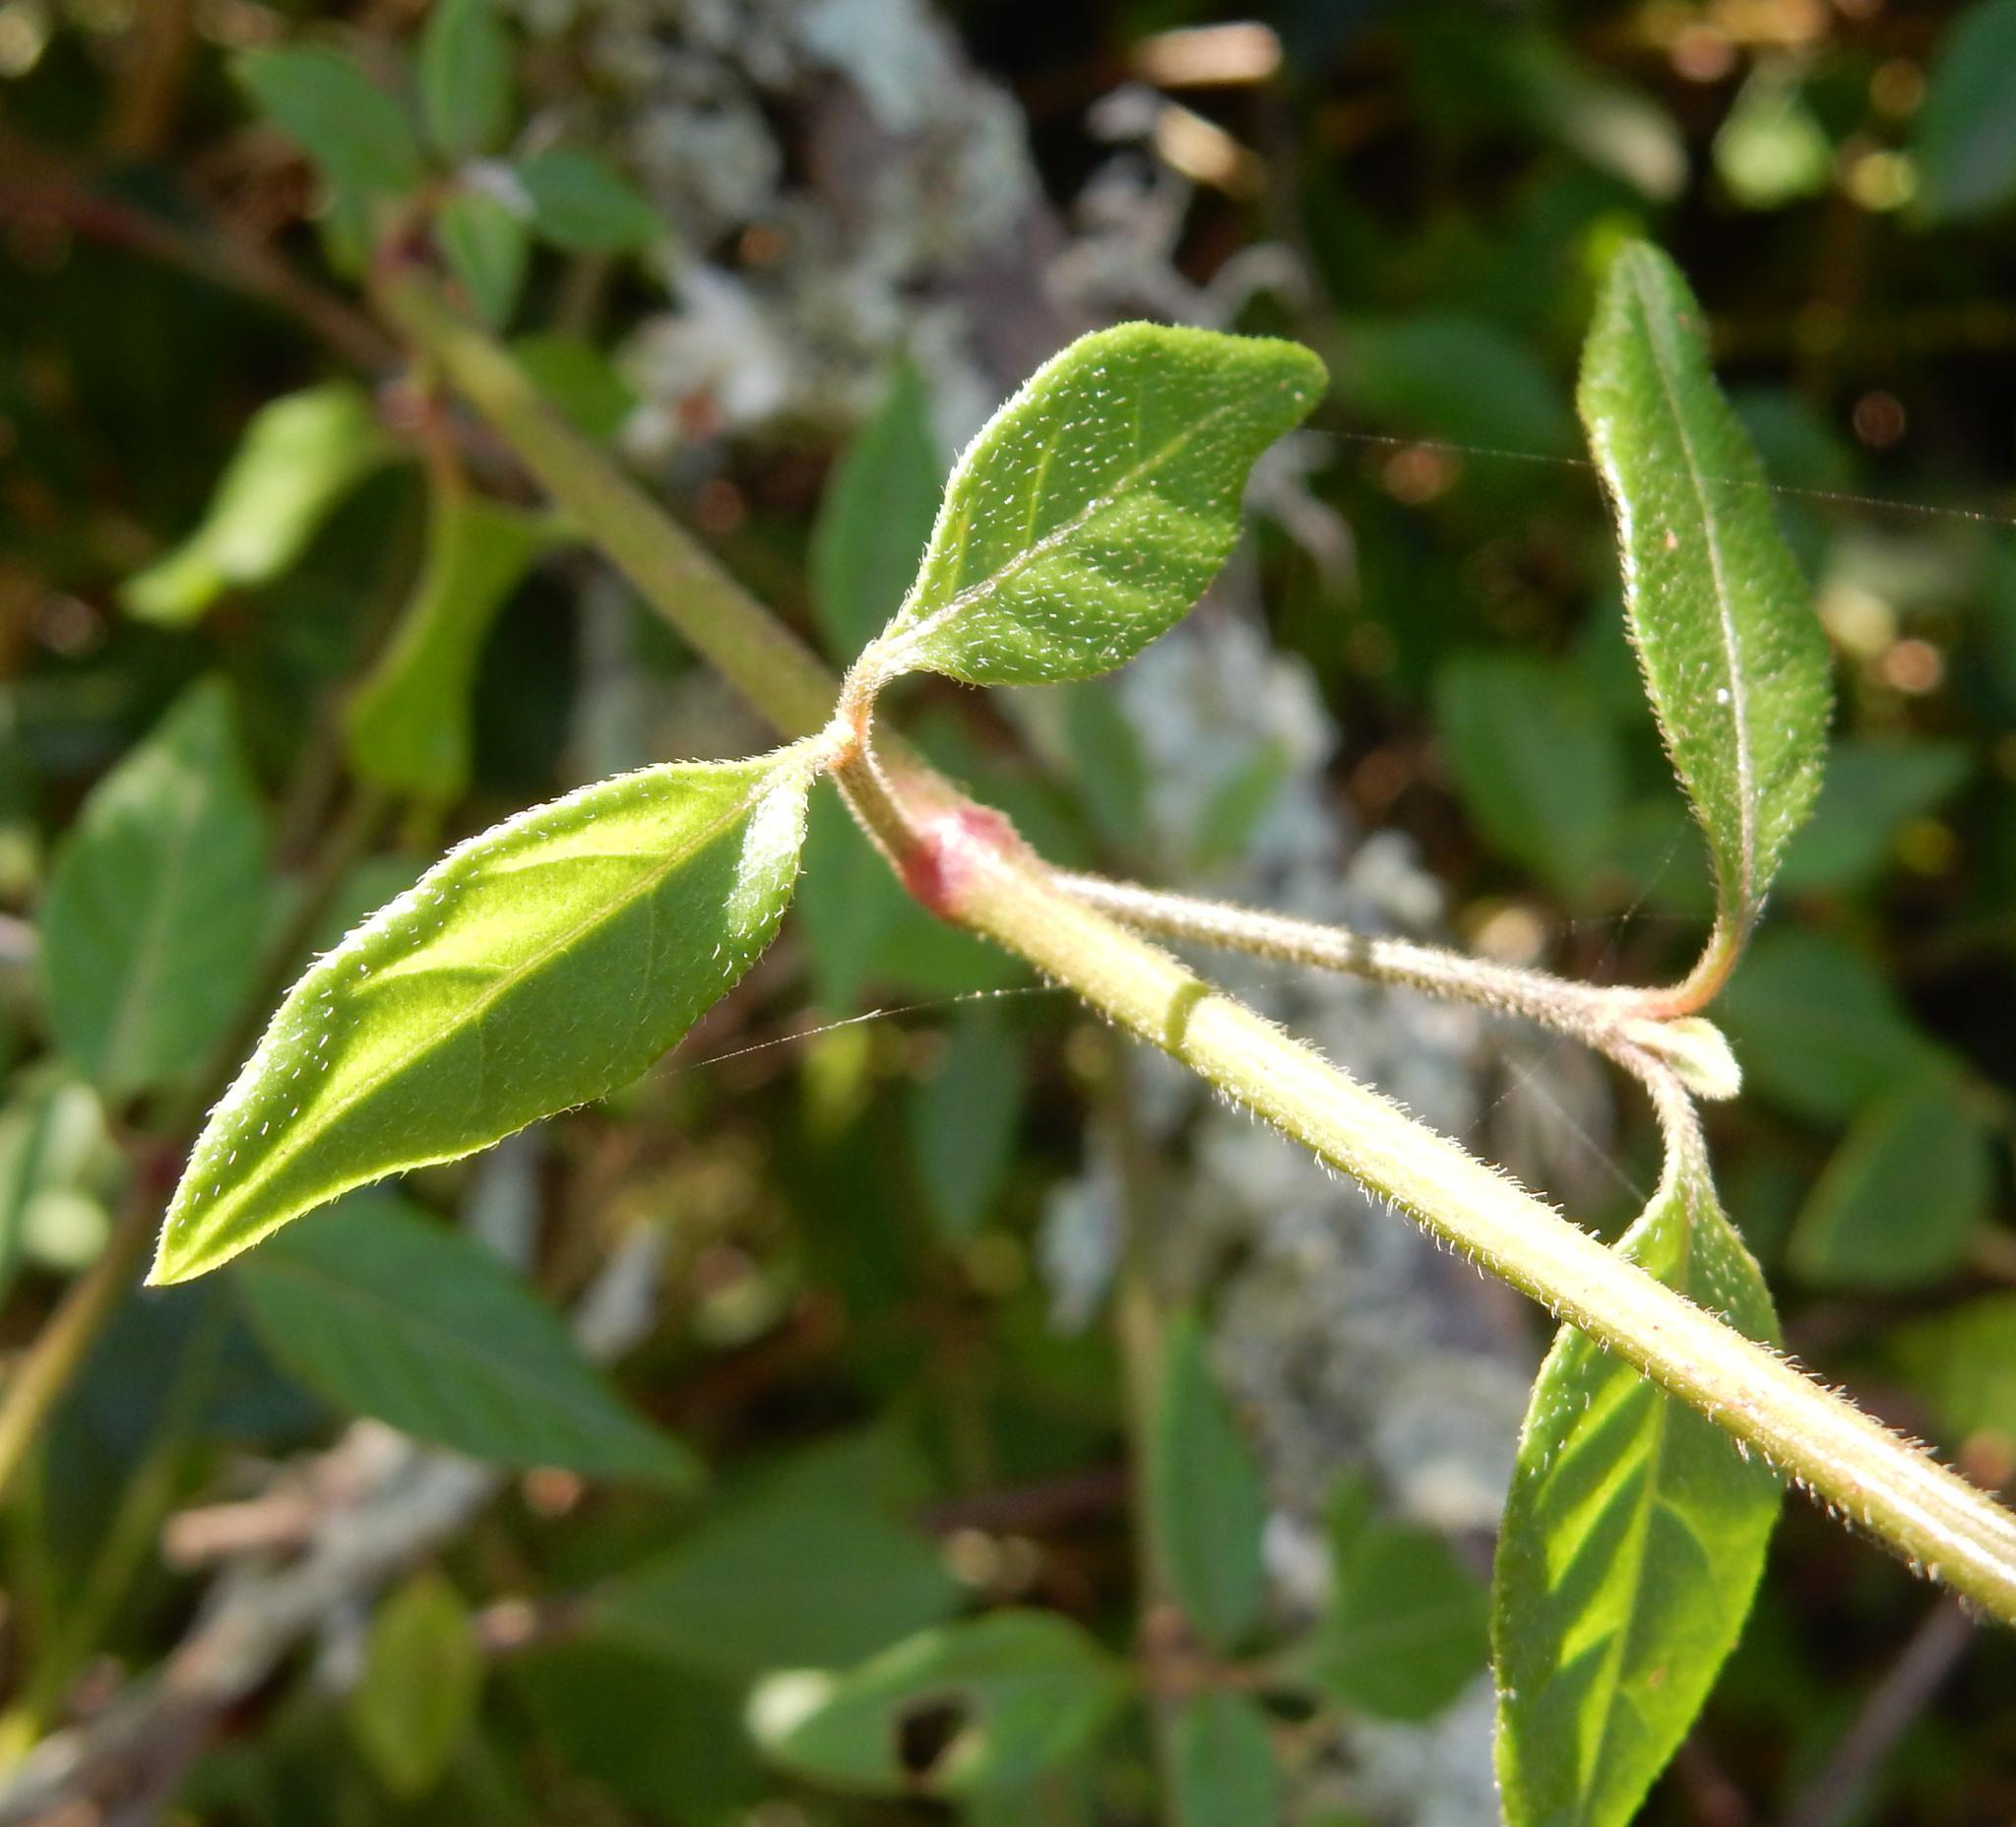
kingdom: Plantae
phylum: Tracheophyta
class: Magnoliopsida
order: Caryophyllales
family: Amaranthaceae
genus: Pupalia
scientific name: Pupalia lappacea
